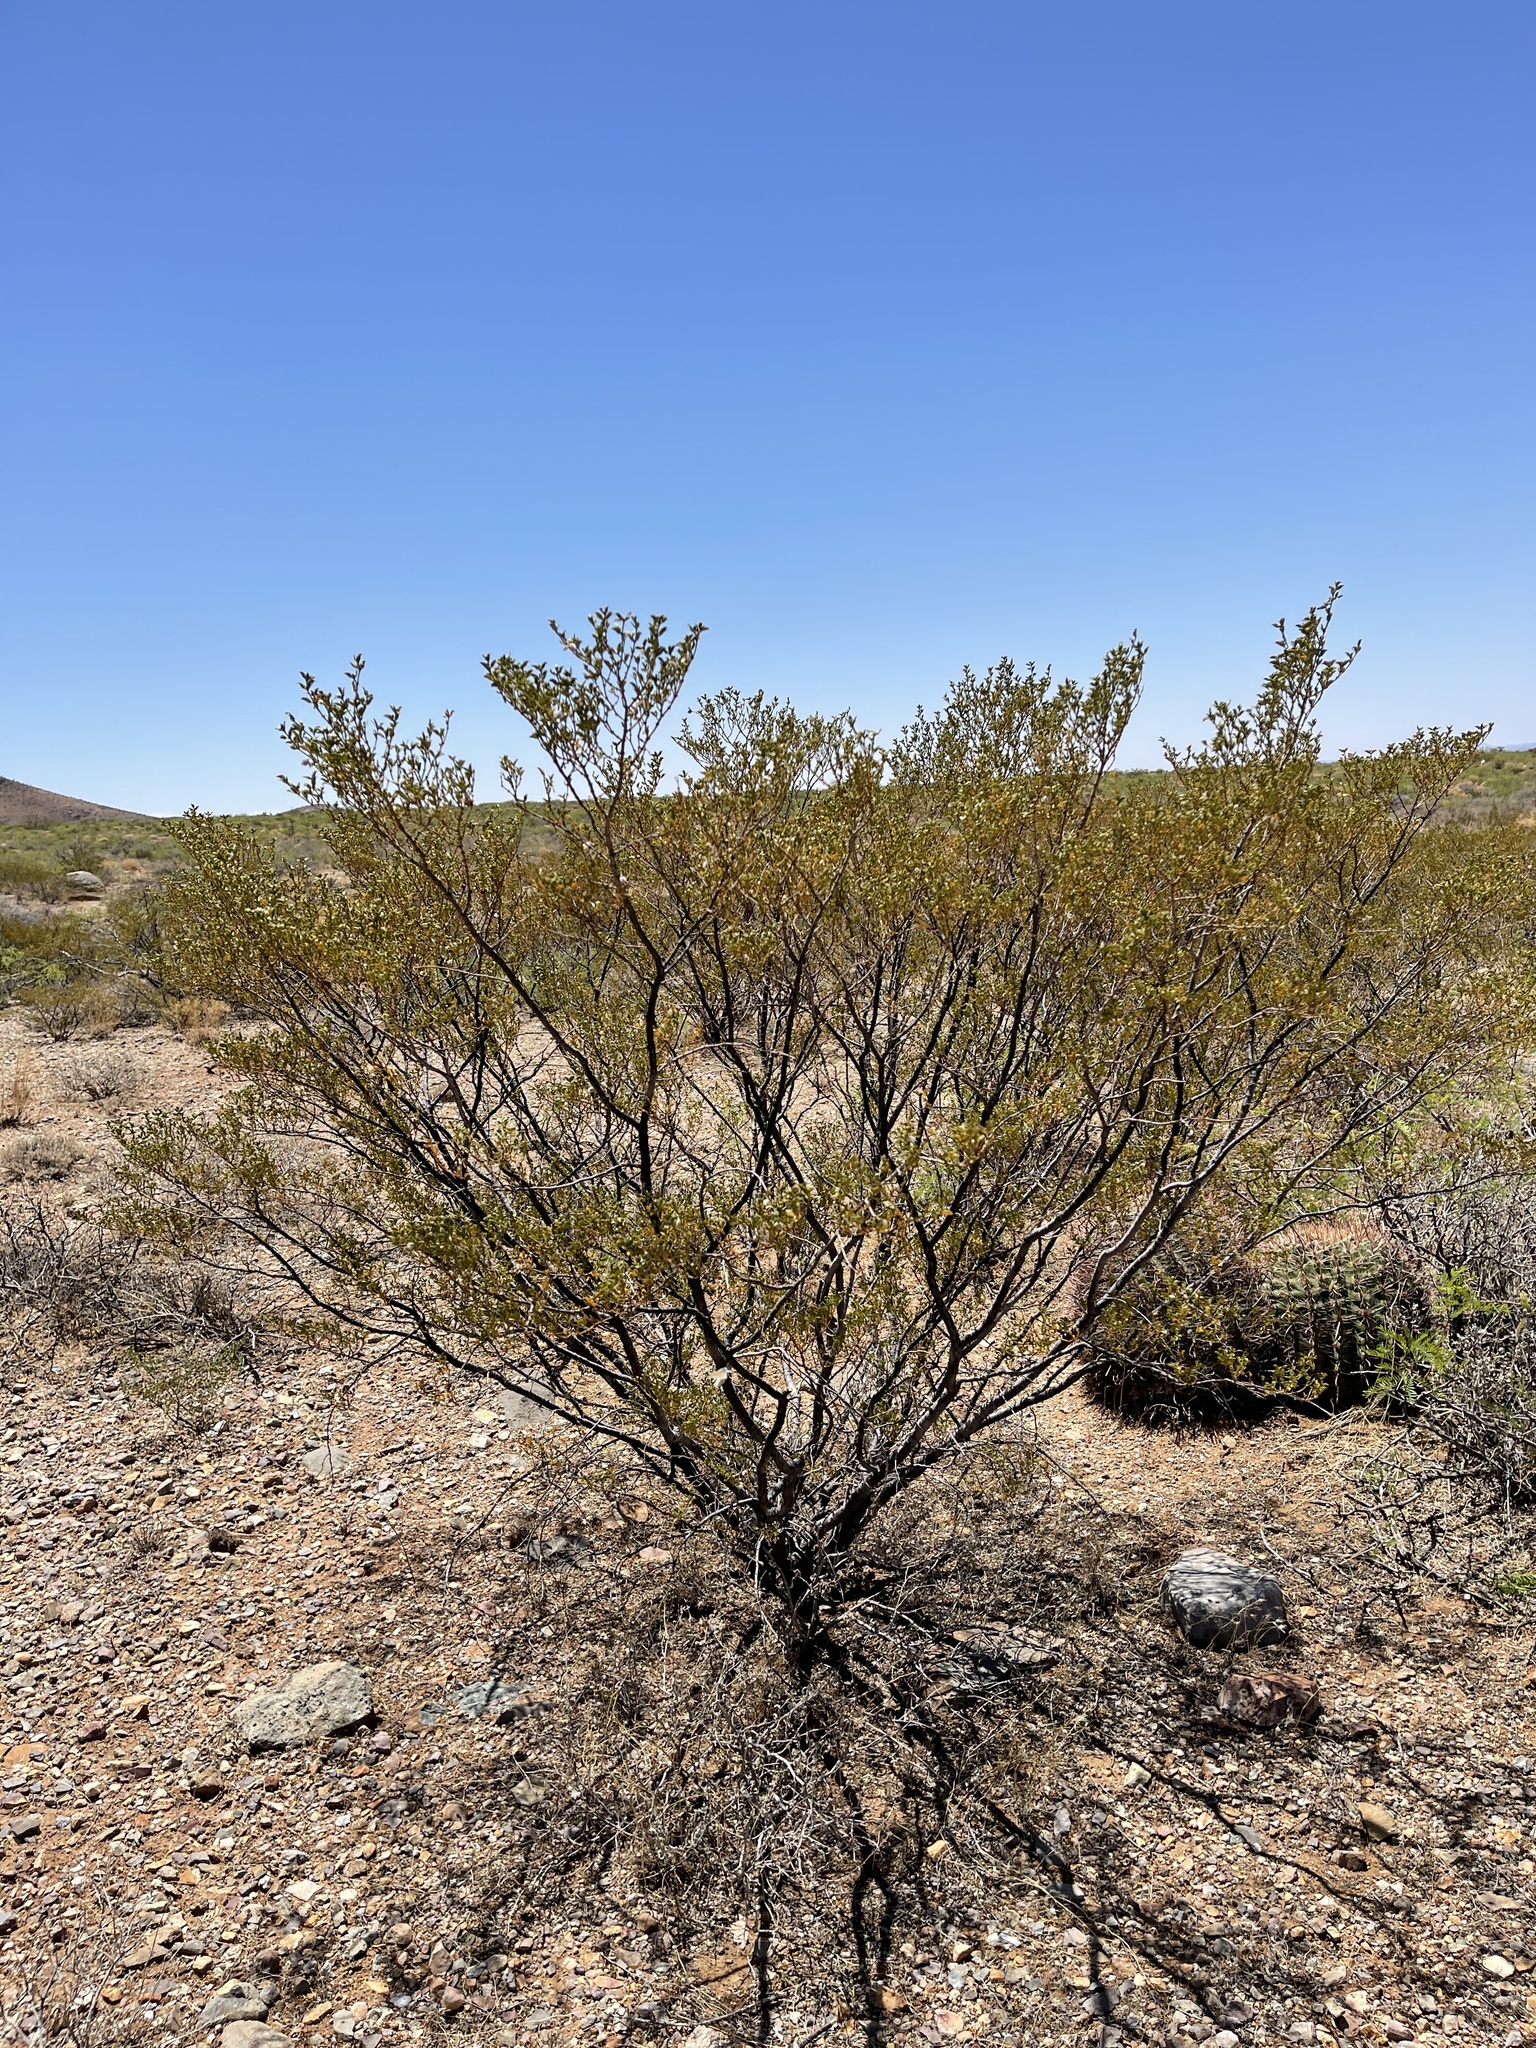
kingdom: Plantae
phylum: Tracheophyta
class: Magnoliopsida
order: Zygophyllales
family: Zygophyllaceae
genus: Larrea
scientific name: Larrea tridentata
